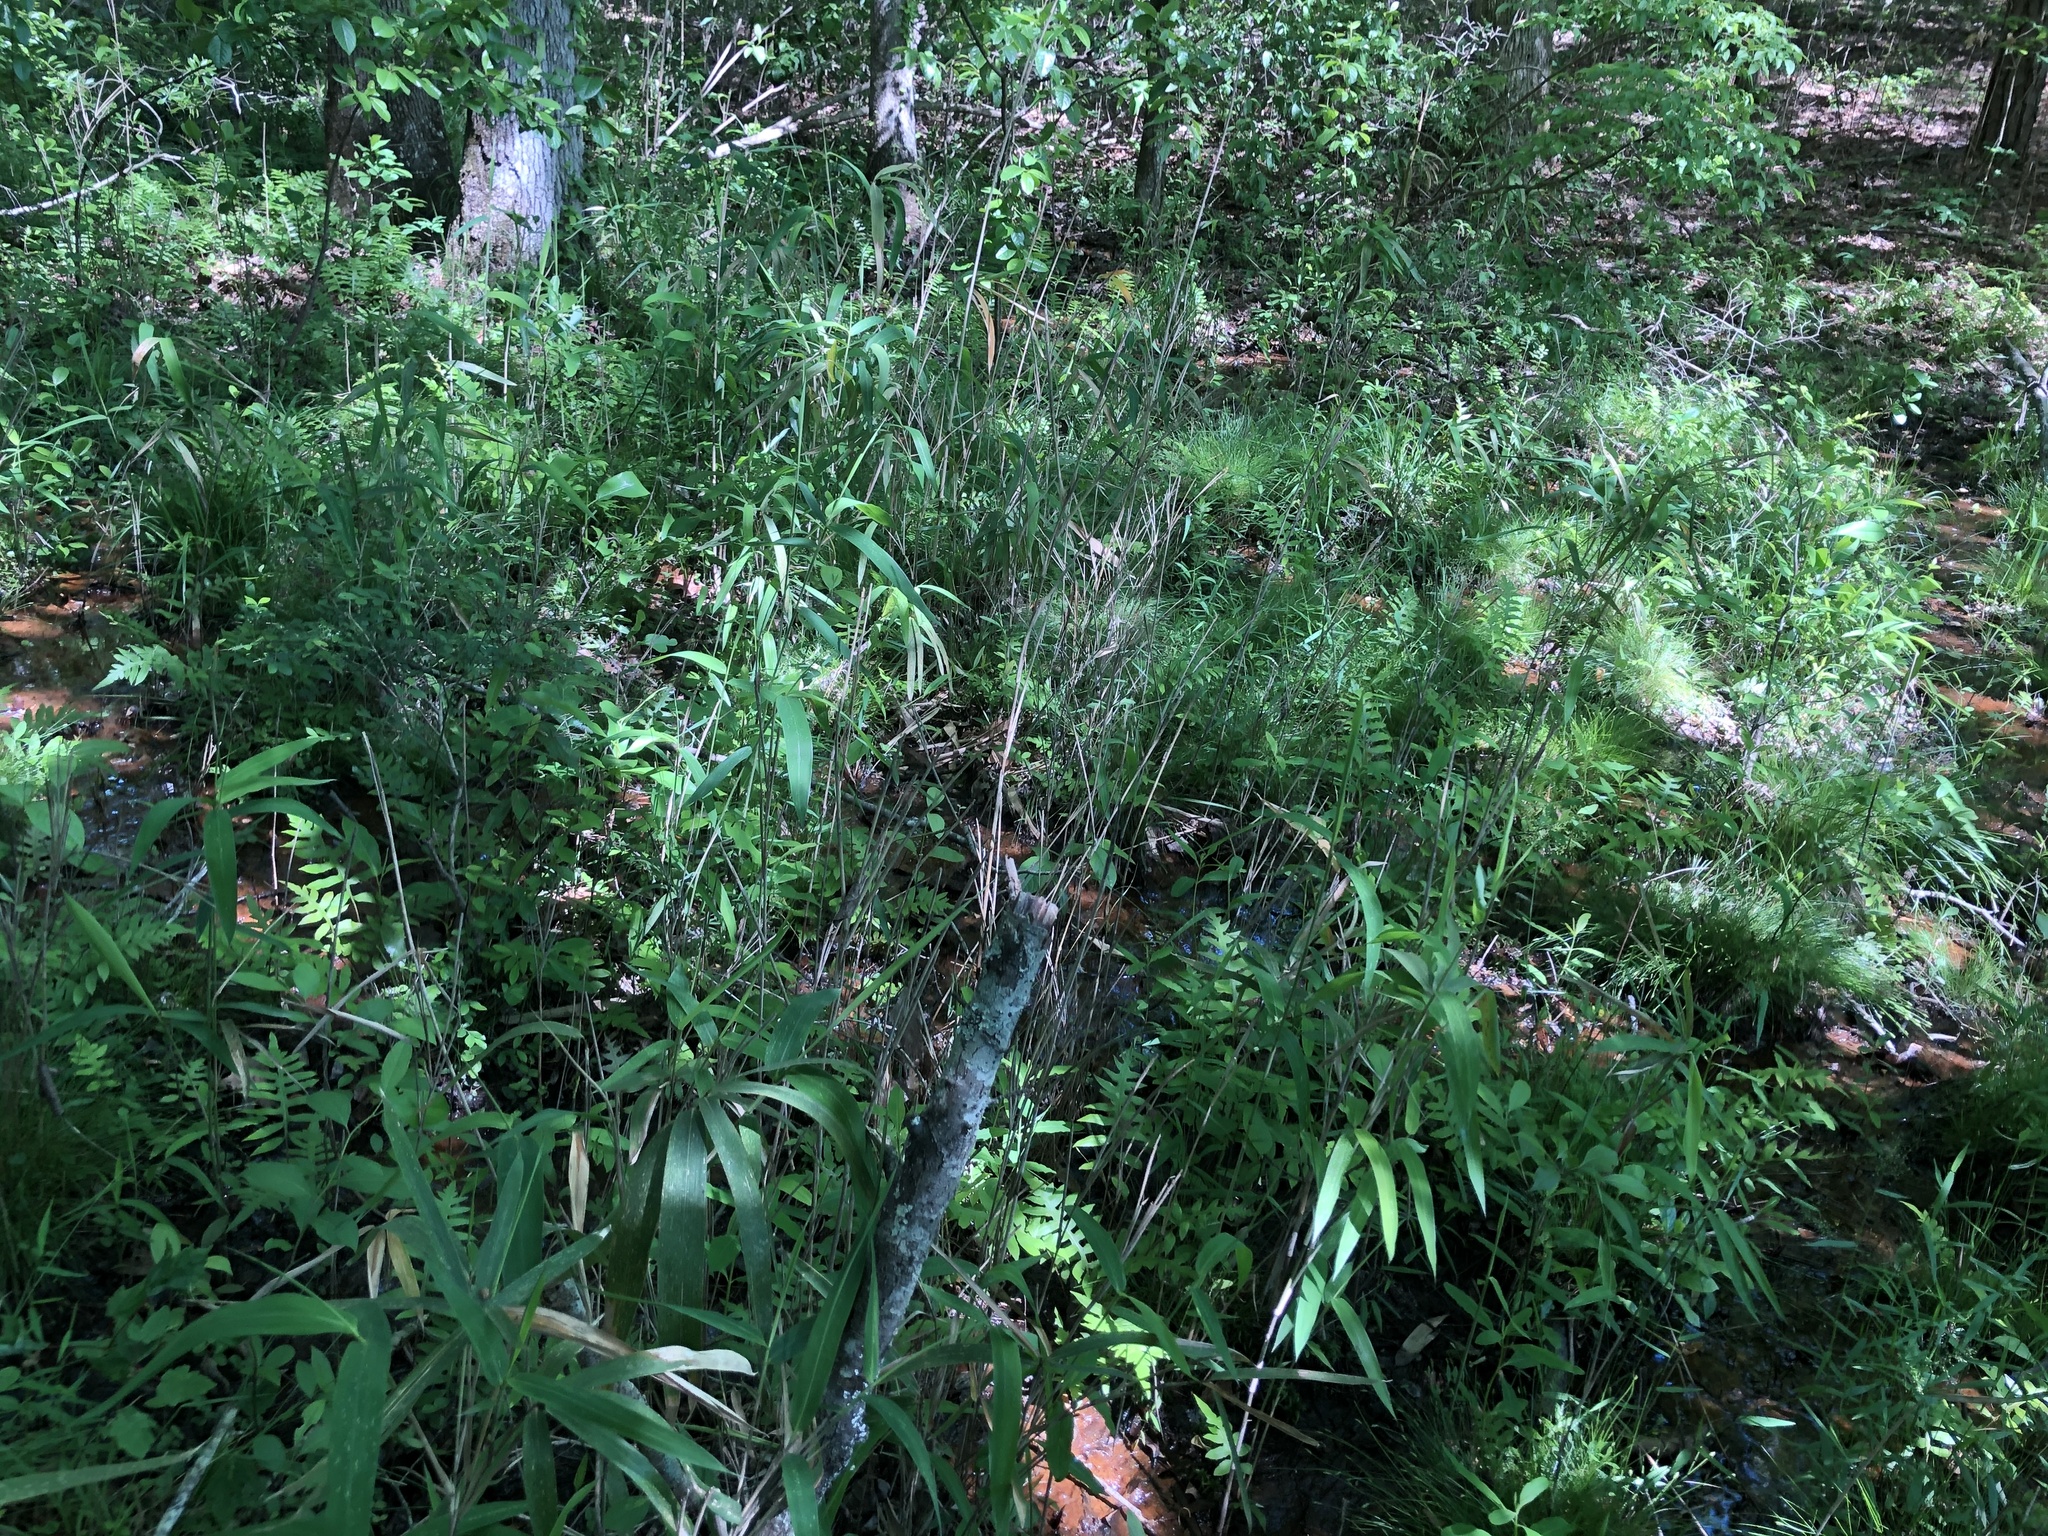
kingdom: Plantae
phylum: Tracheophyta
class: Polypodiopsida
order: Polypodiales
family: Blechnaceae
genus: Lorinseria
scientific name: Lorinseria areolata
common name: Dwarf chain fern
